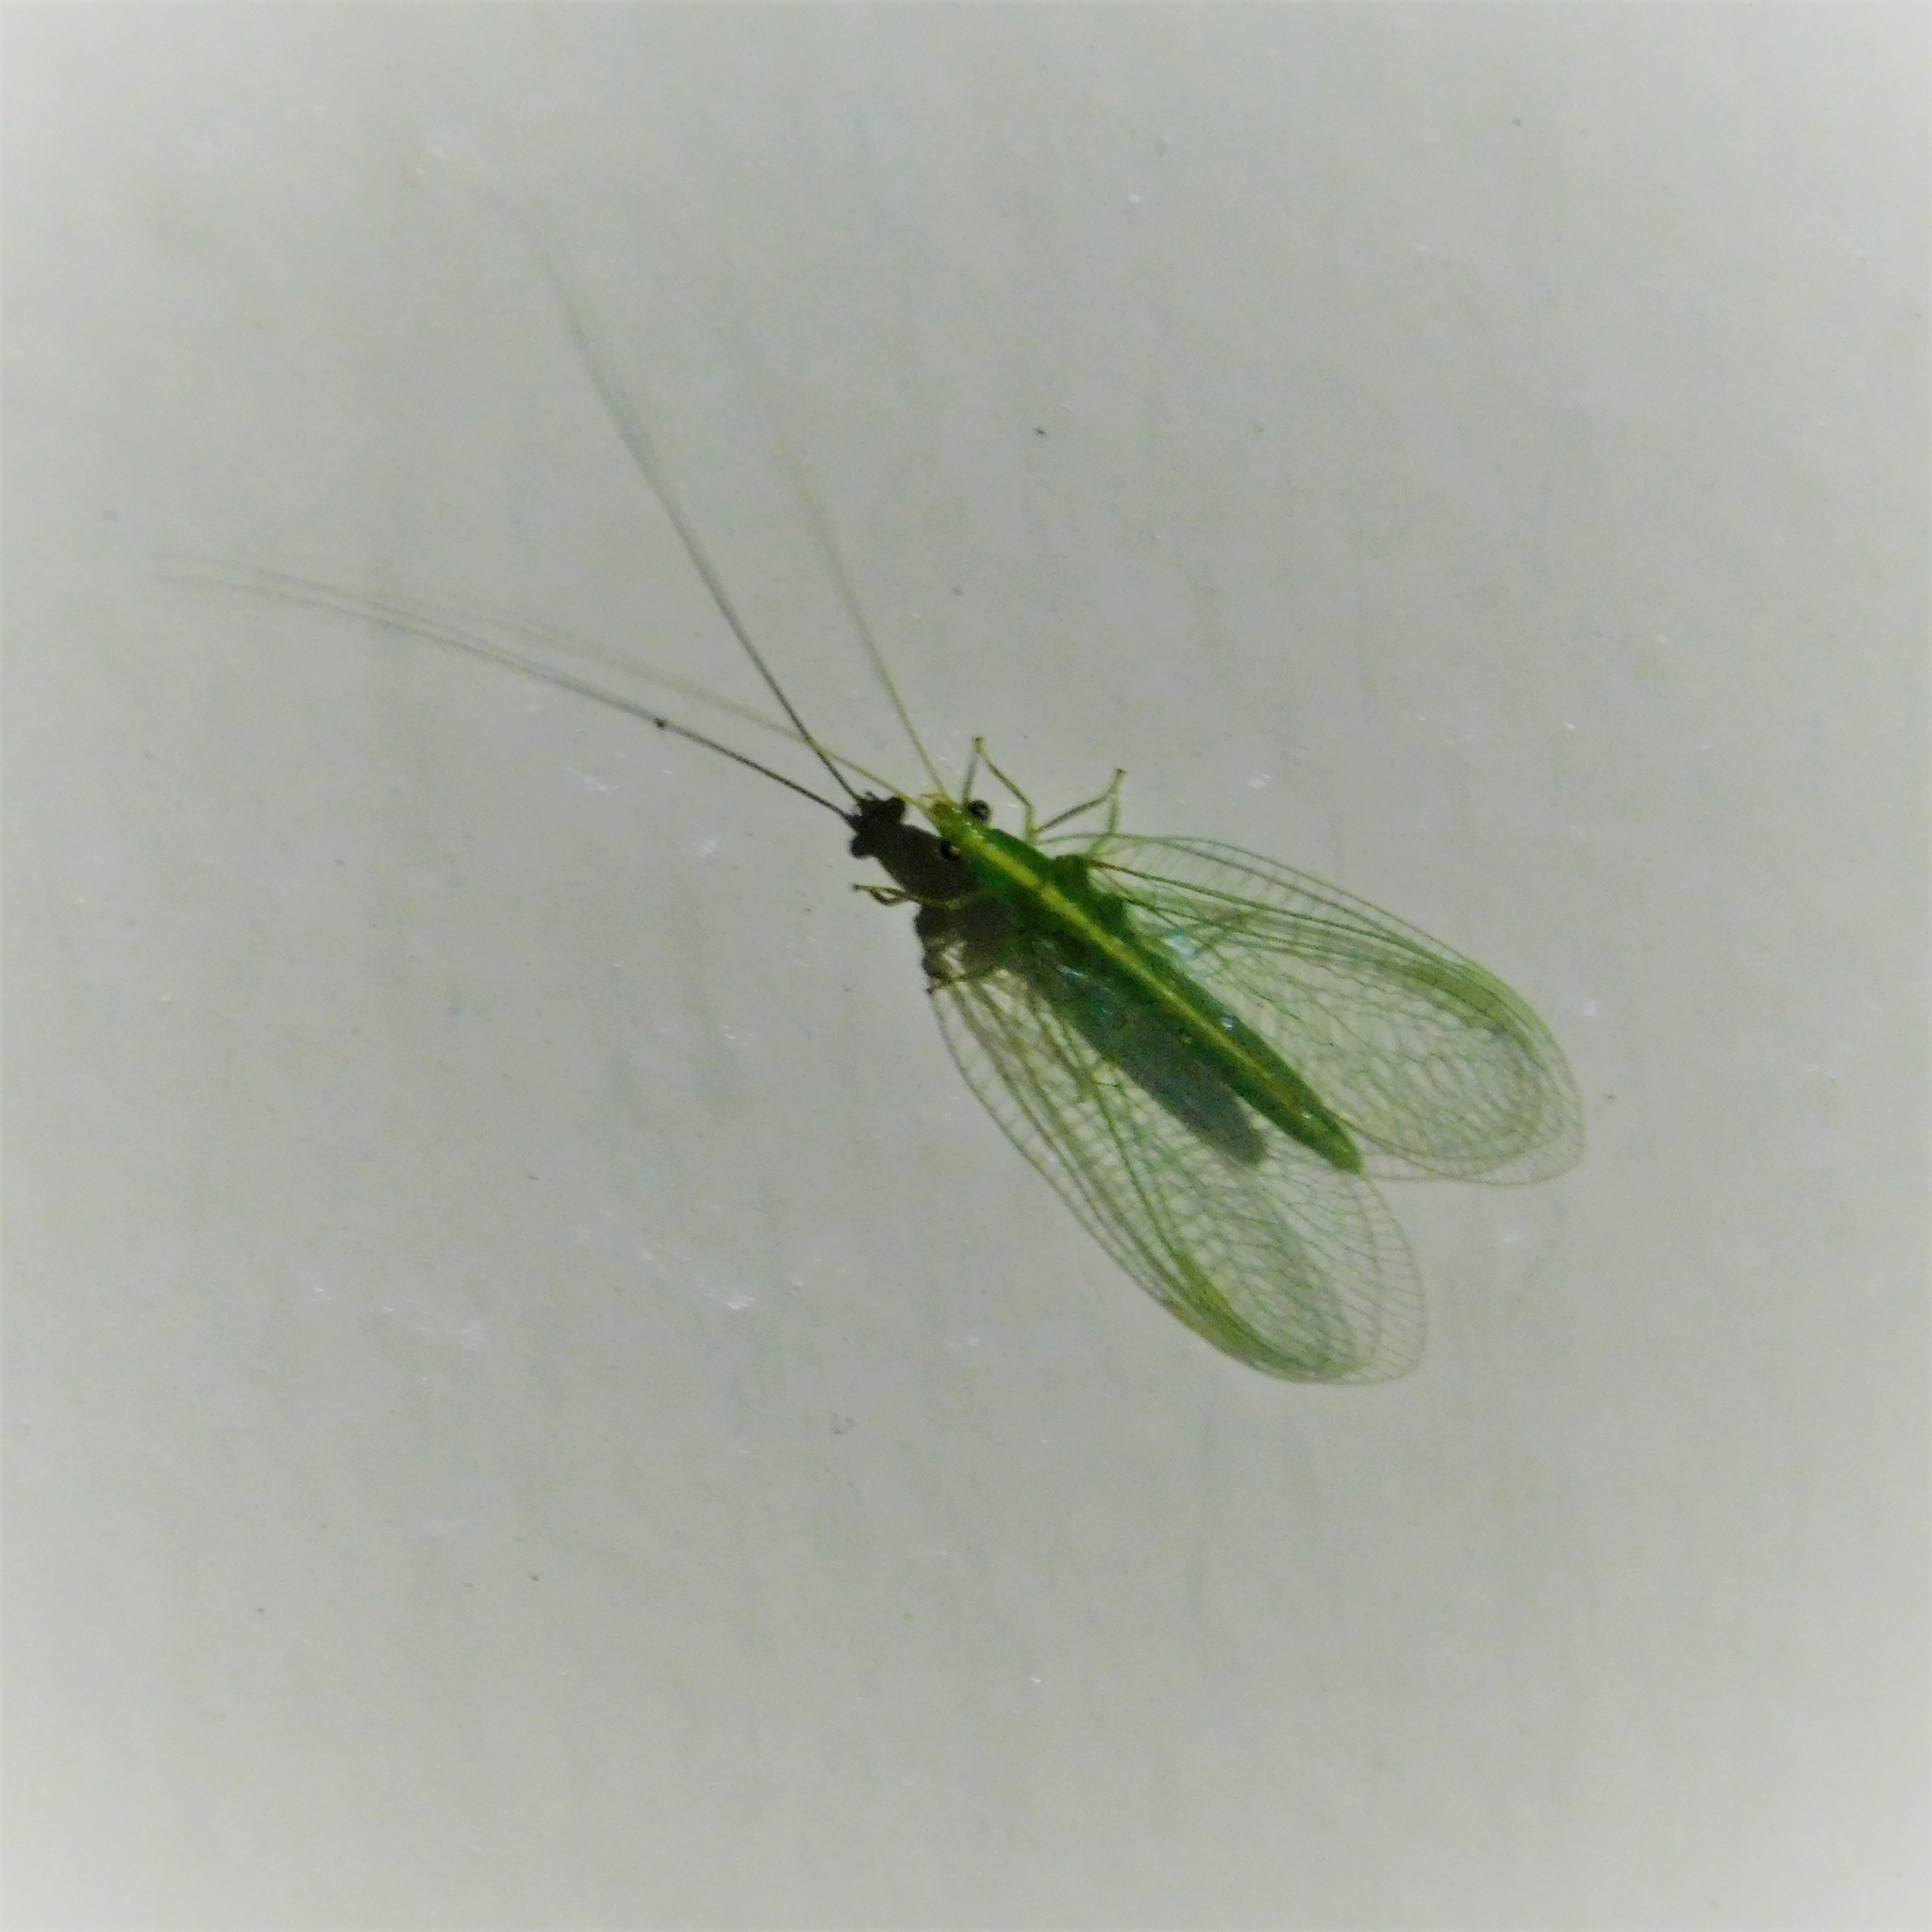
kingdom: Animalia
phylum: Arthropoda
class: Insecta
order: Neuroptera
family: Chrysopidae
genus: Mallada
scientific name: Mallada basalis
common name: Green lacewing
